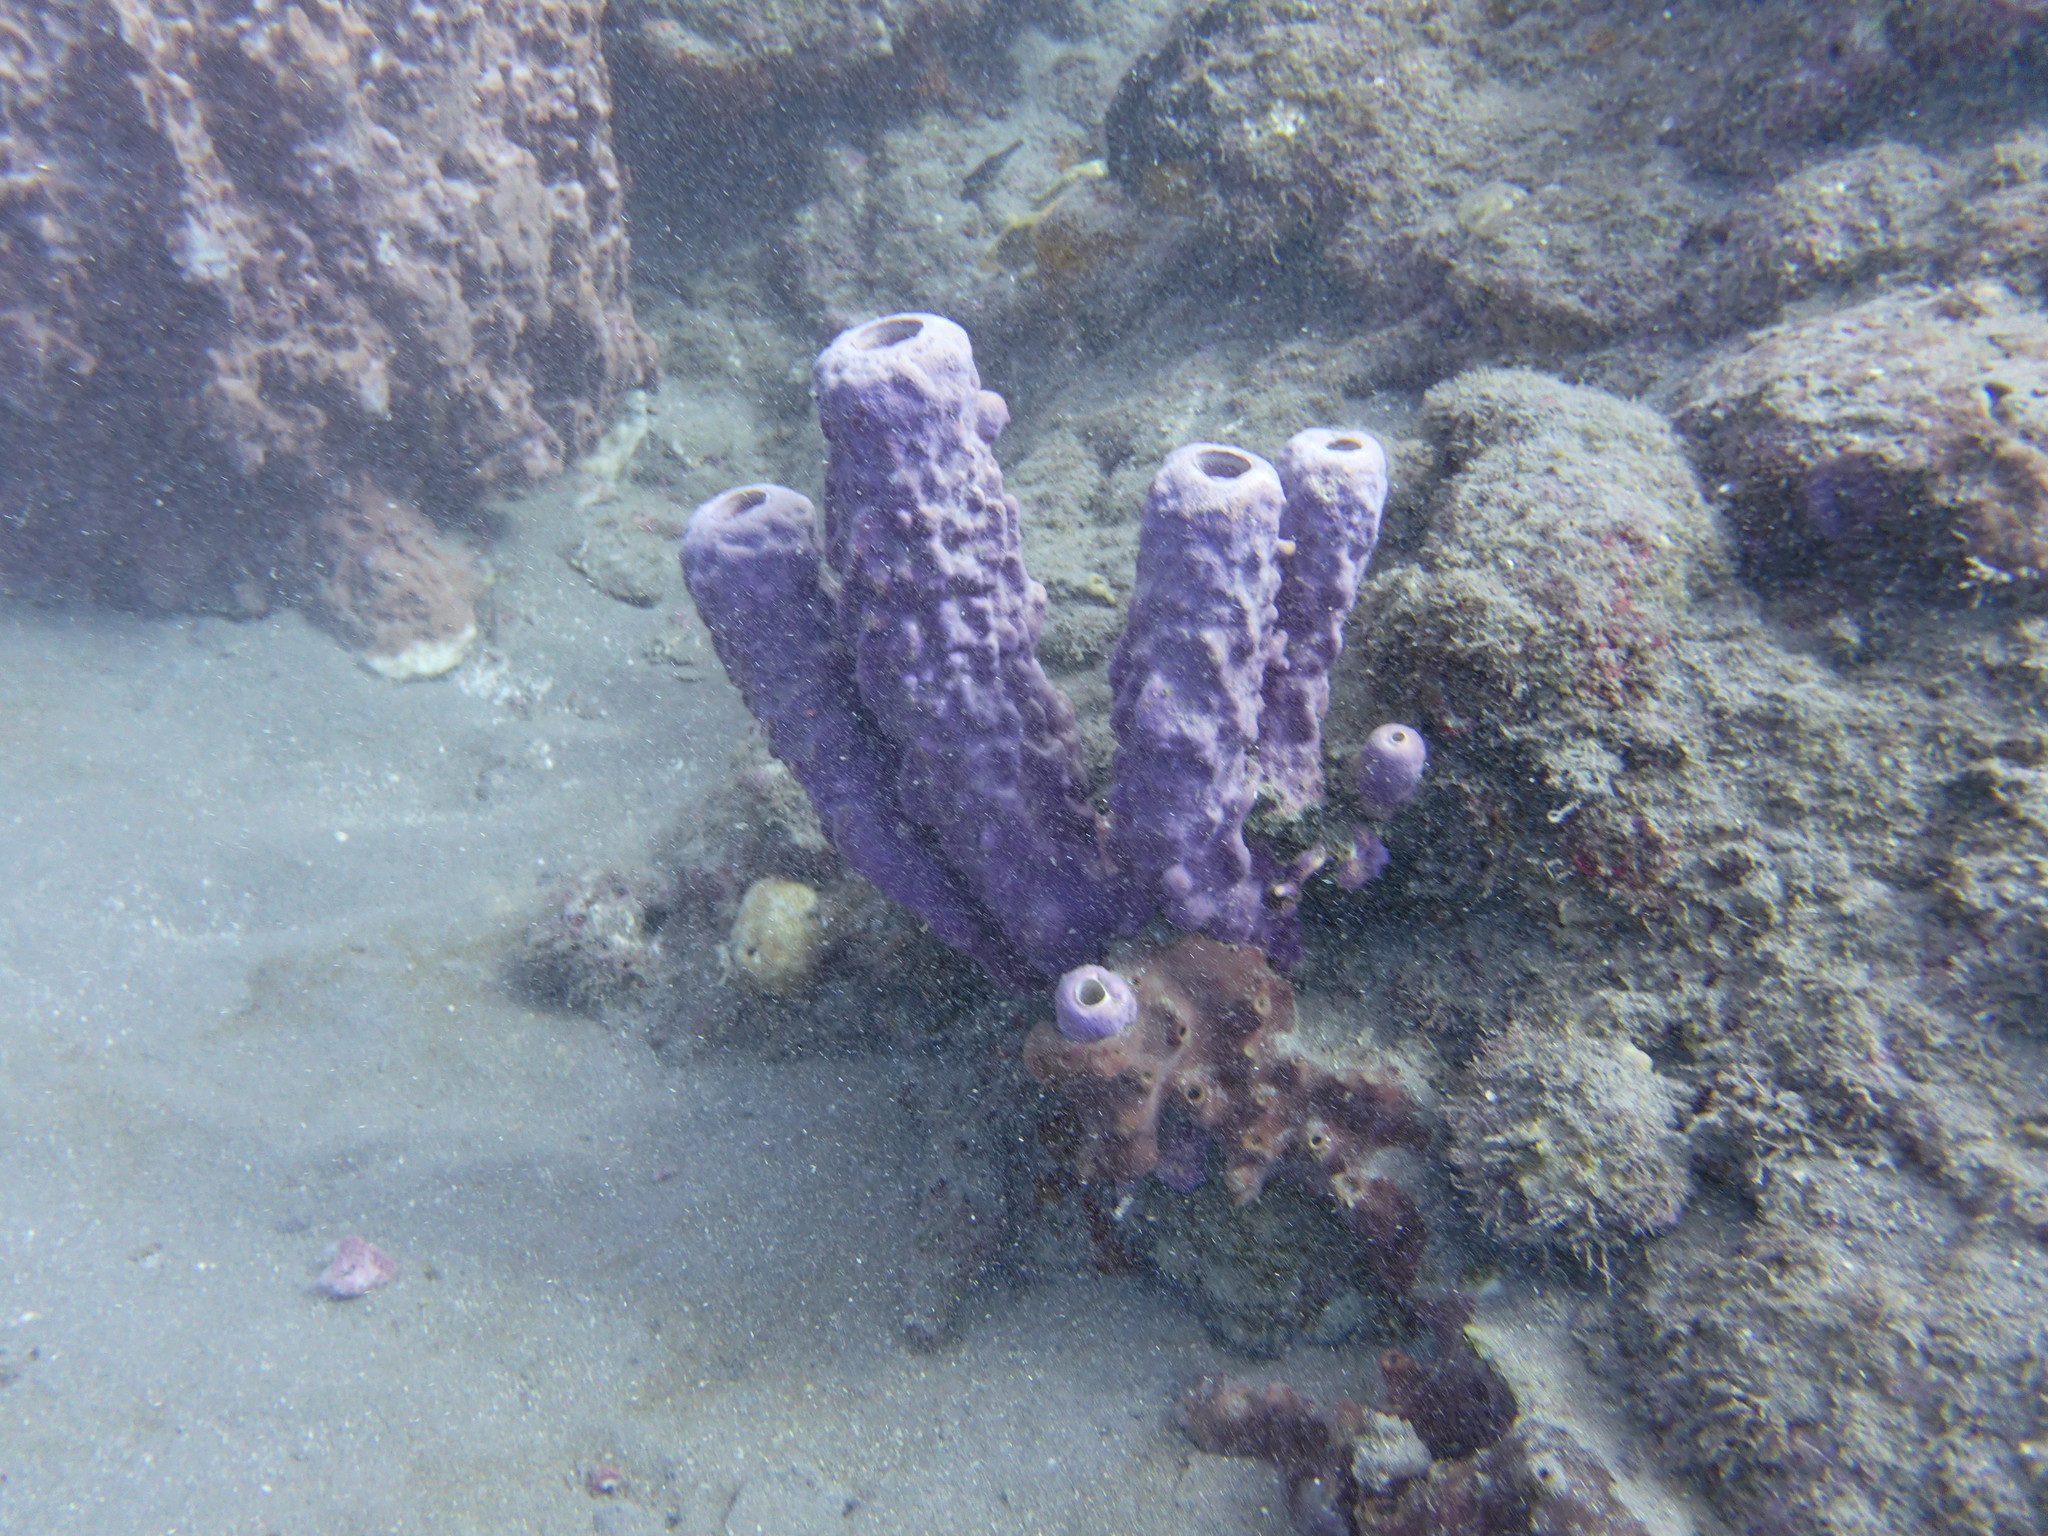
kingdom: Animalia
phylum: Porifera
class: Demospongiae
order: Verongiida
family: Aplysinidae
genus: Aplysina
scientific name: Aplysina archeri
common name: Stove-pipe sponge
